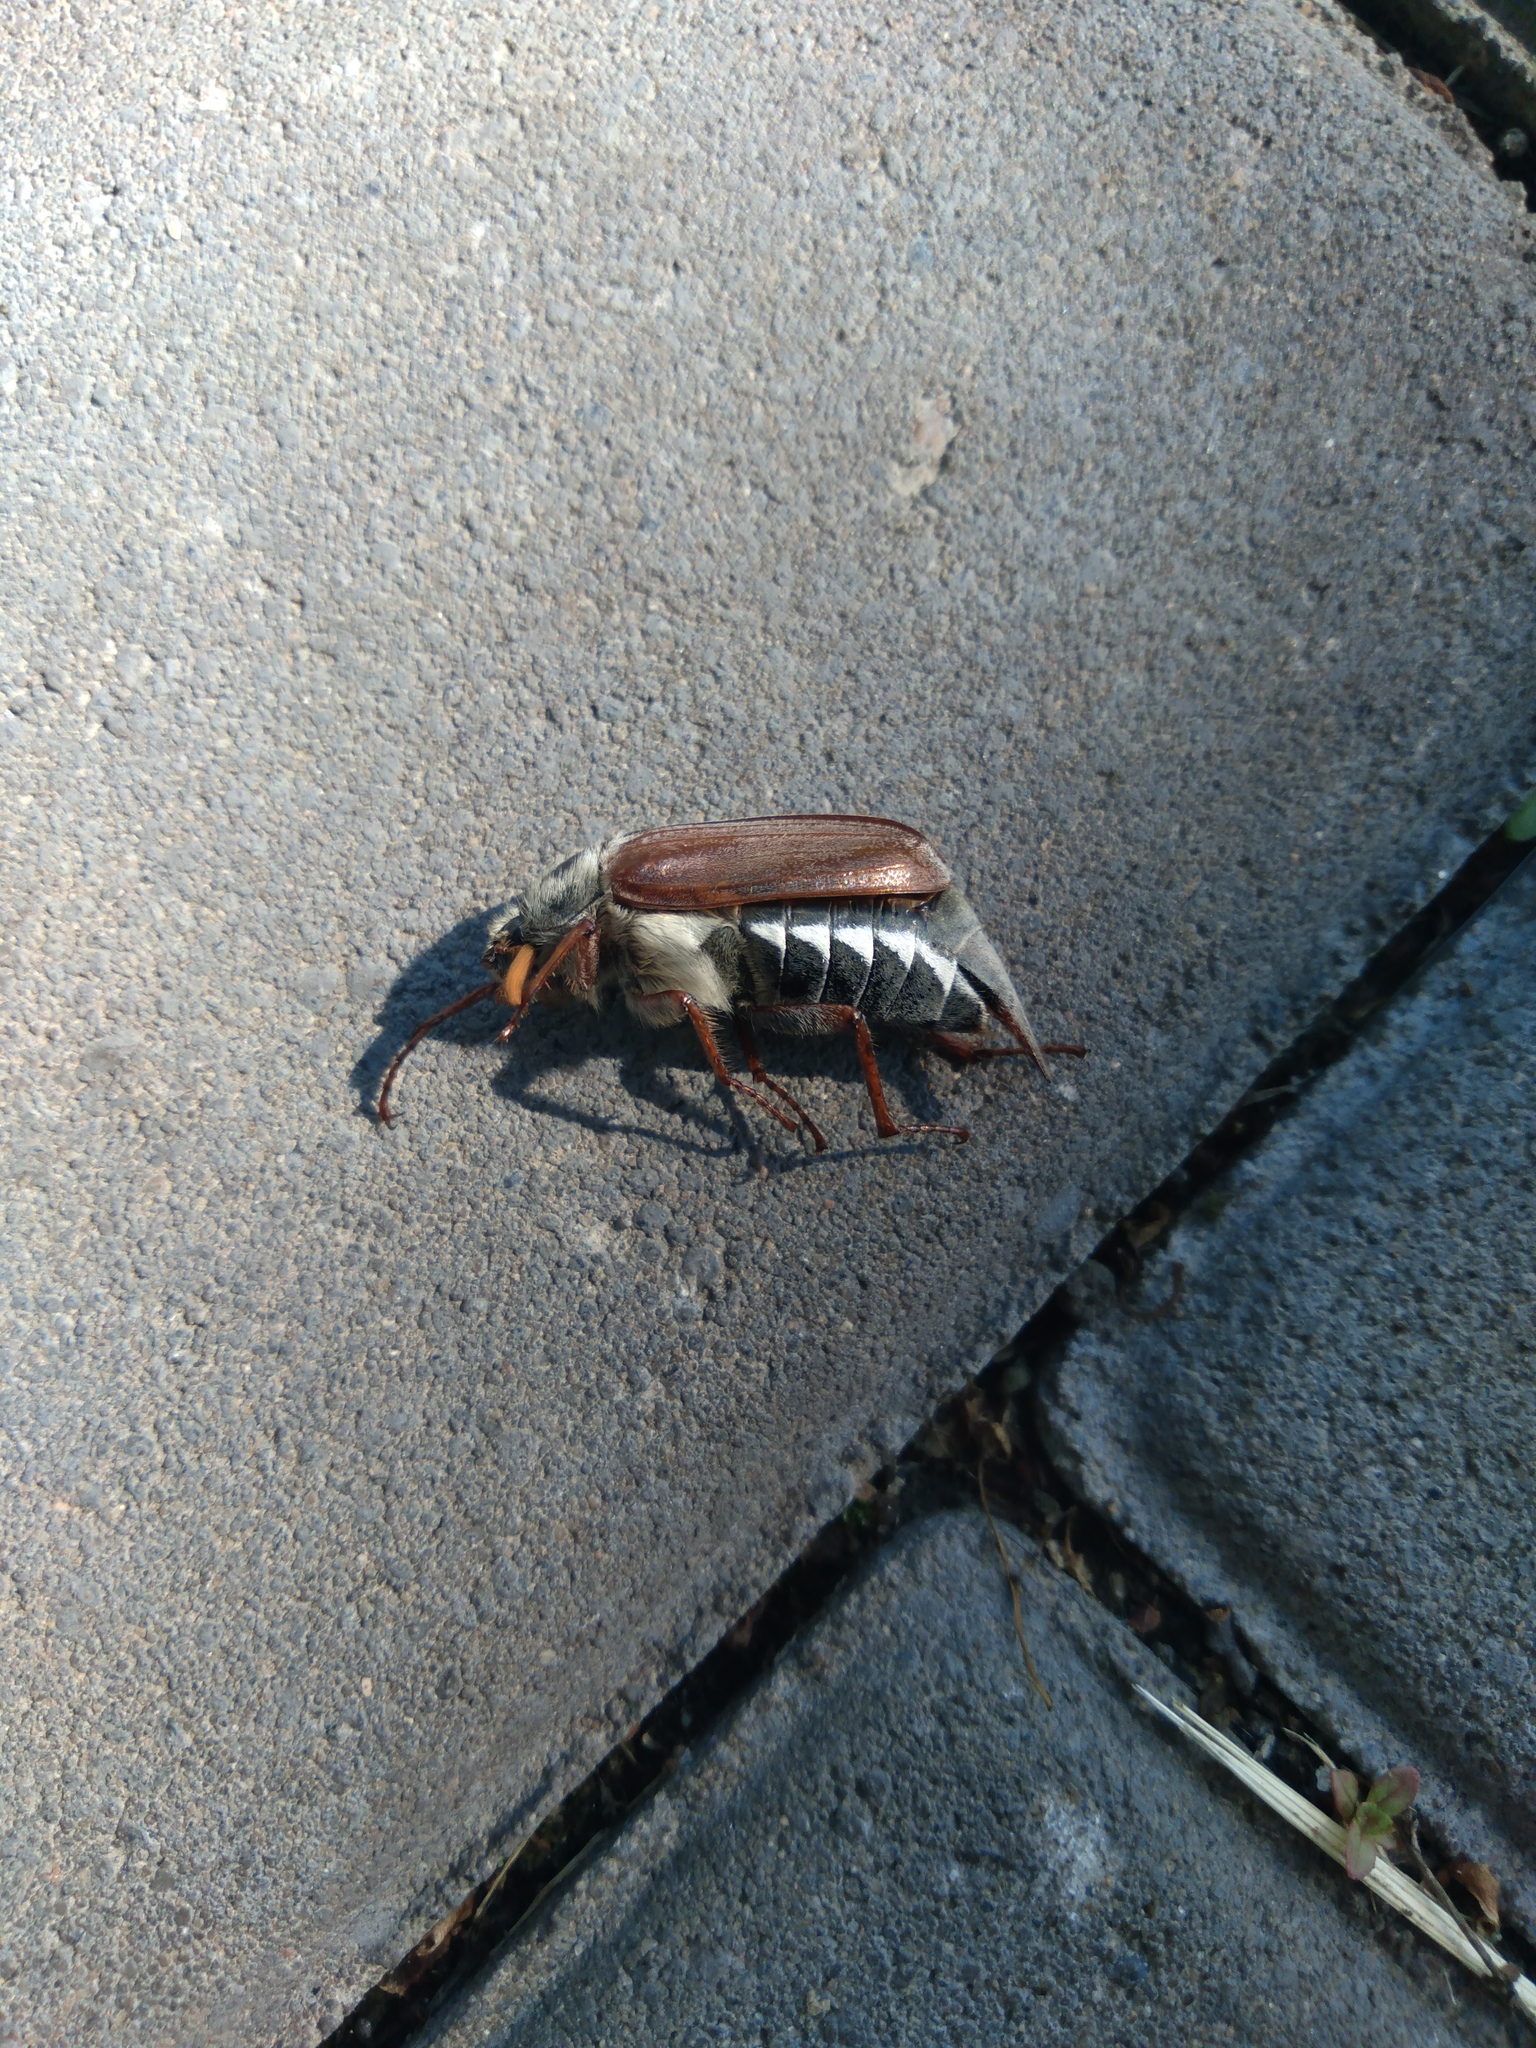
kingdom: Animalia
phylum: Arthropoda
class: Insecta
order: Coleoptera
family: Scarabaeidae
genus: Melolontha
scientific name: Melolontha melolontha
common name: Cockchafer maybeetle
